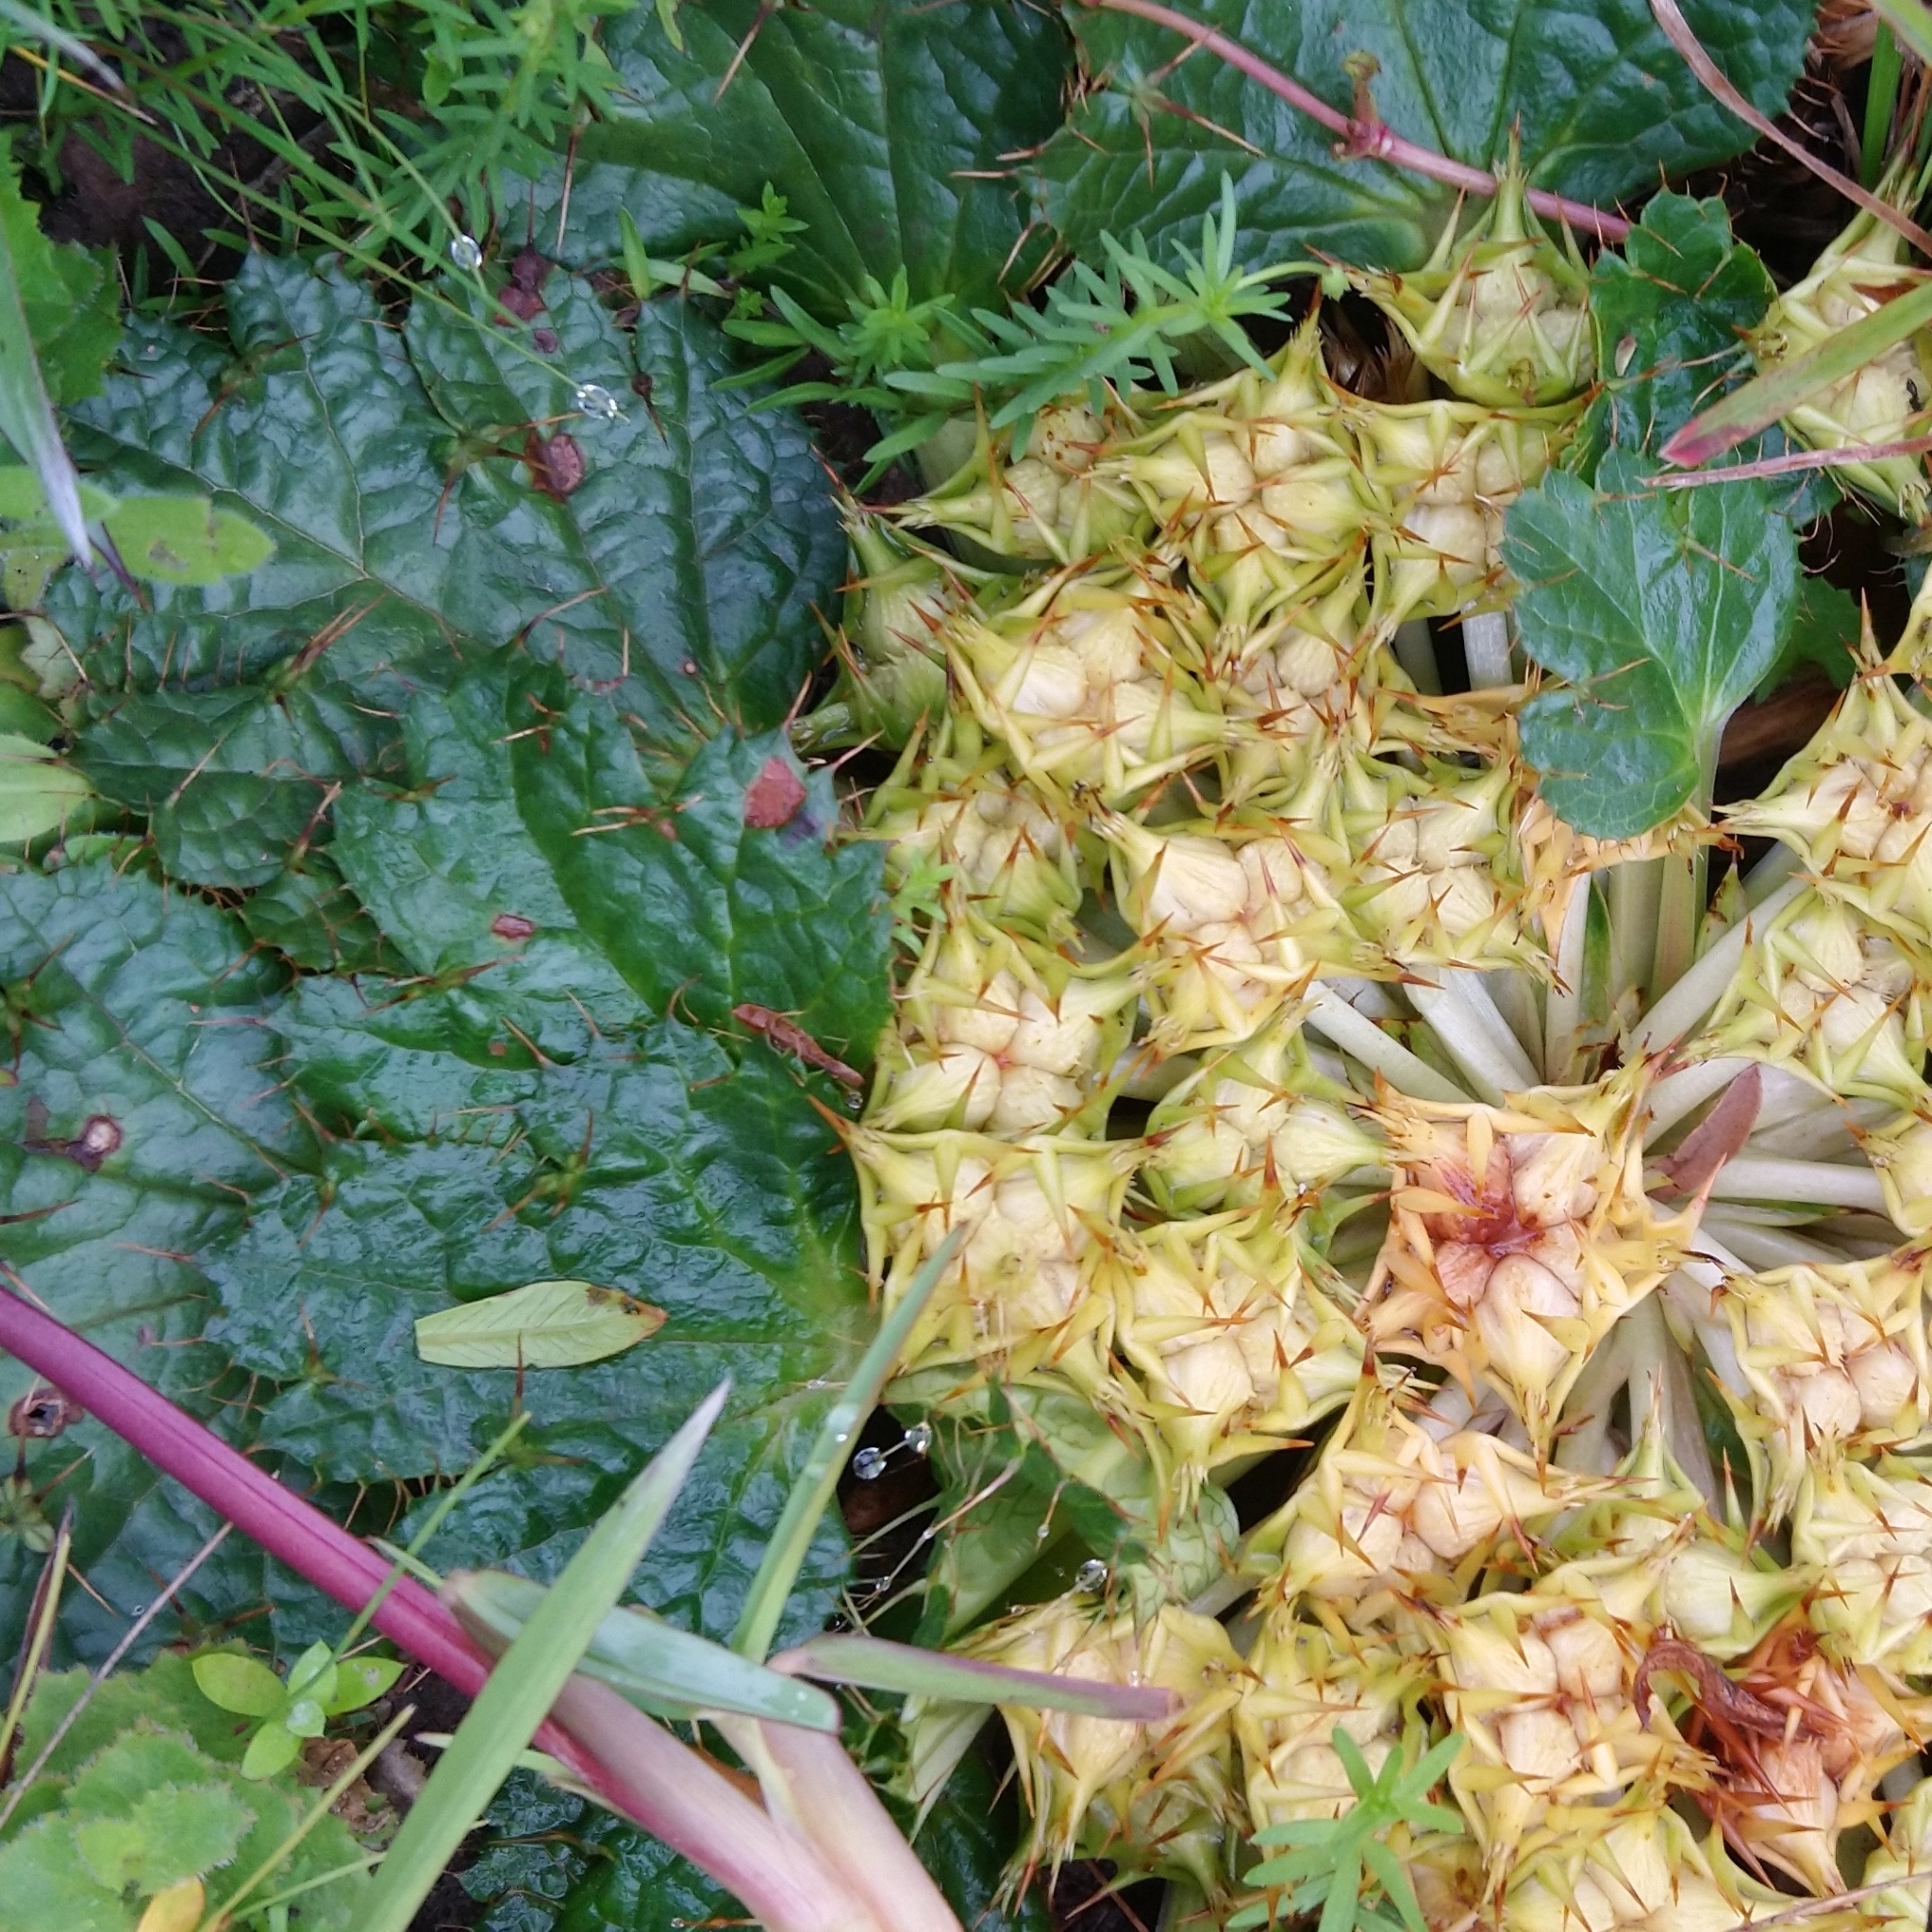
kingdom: Plantae
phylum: Tracheophyta
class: Magnoliopsida
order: Apiales
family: Apiaceae
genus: Arctopus
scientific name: Arctopus echinatus
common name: Platdoring
